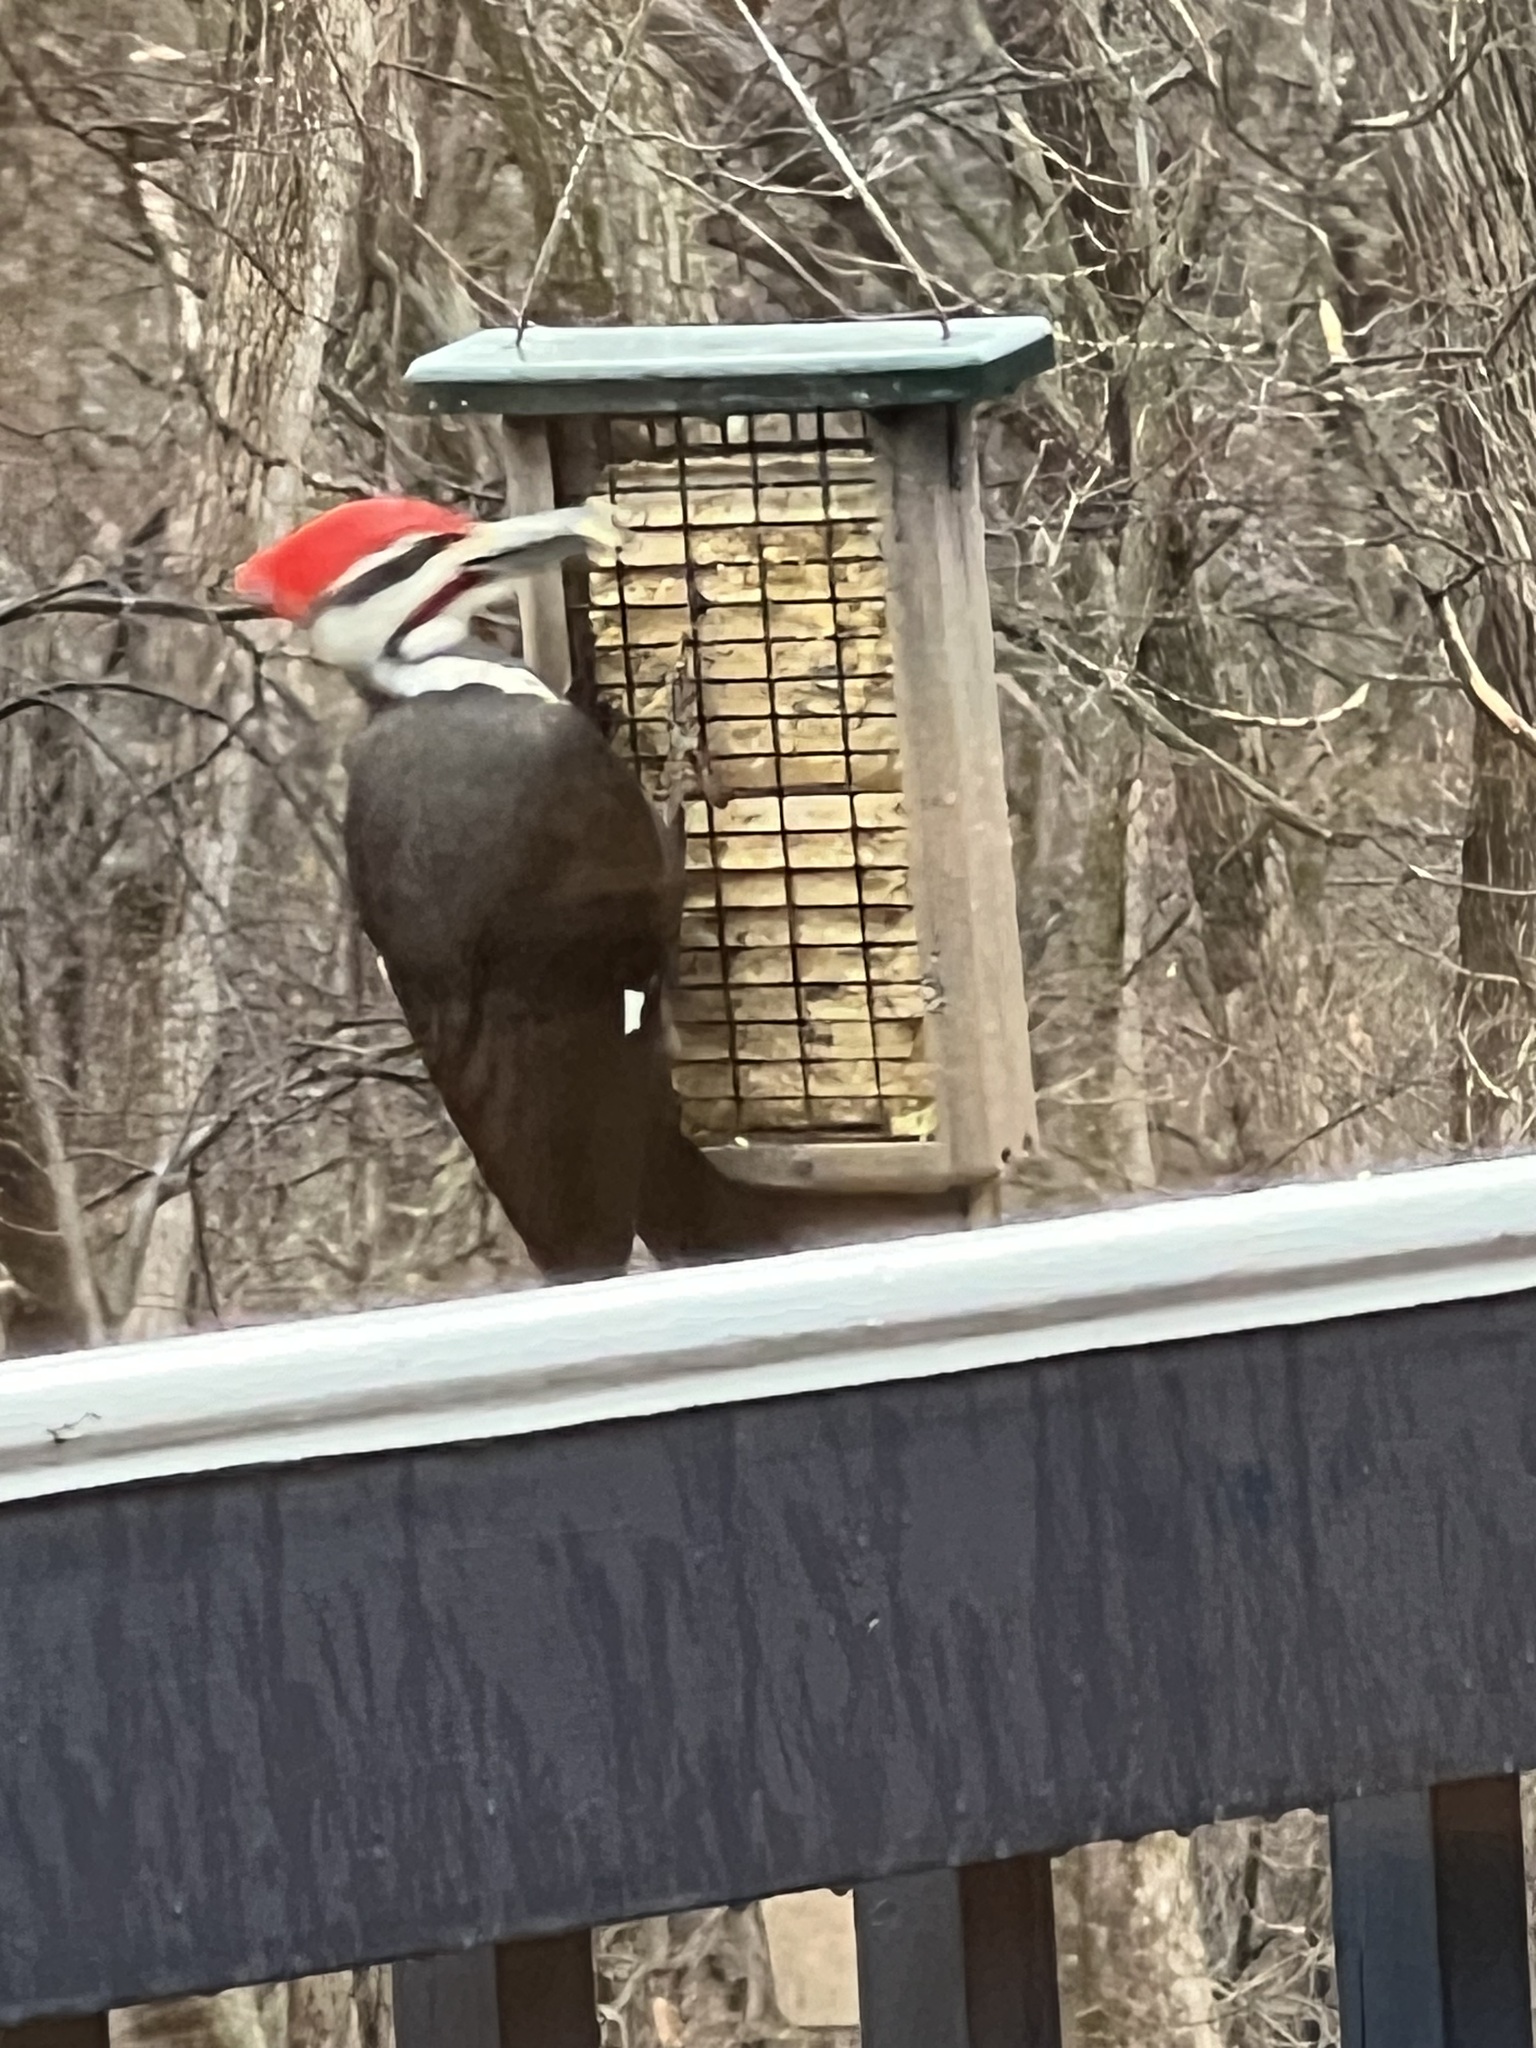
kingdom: Animalia
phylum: Chordata
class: Aves
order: Piciformes
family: Picidae
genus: Dryocopus
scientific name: Dryocopus pileatus
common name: Pileated woodpecker
